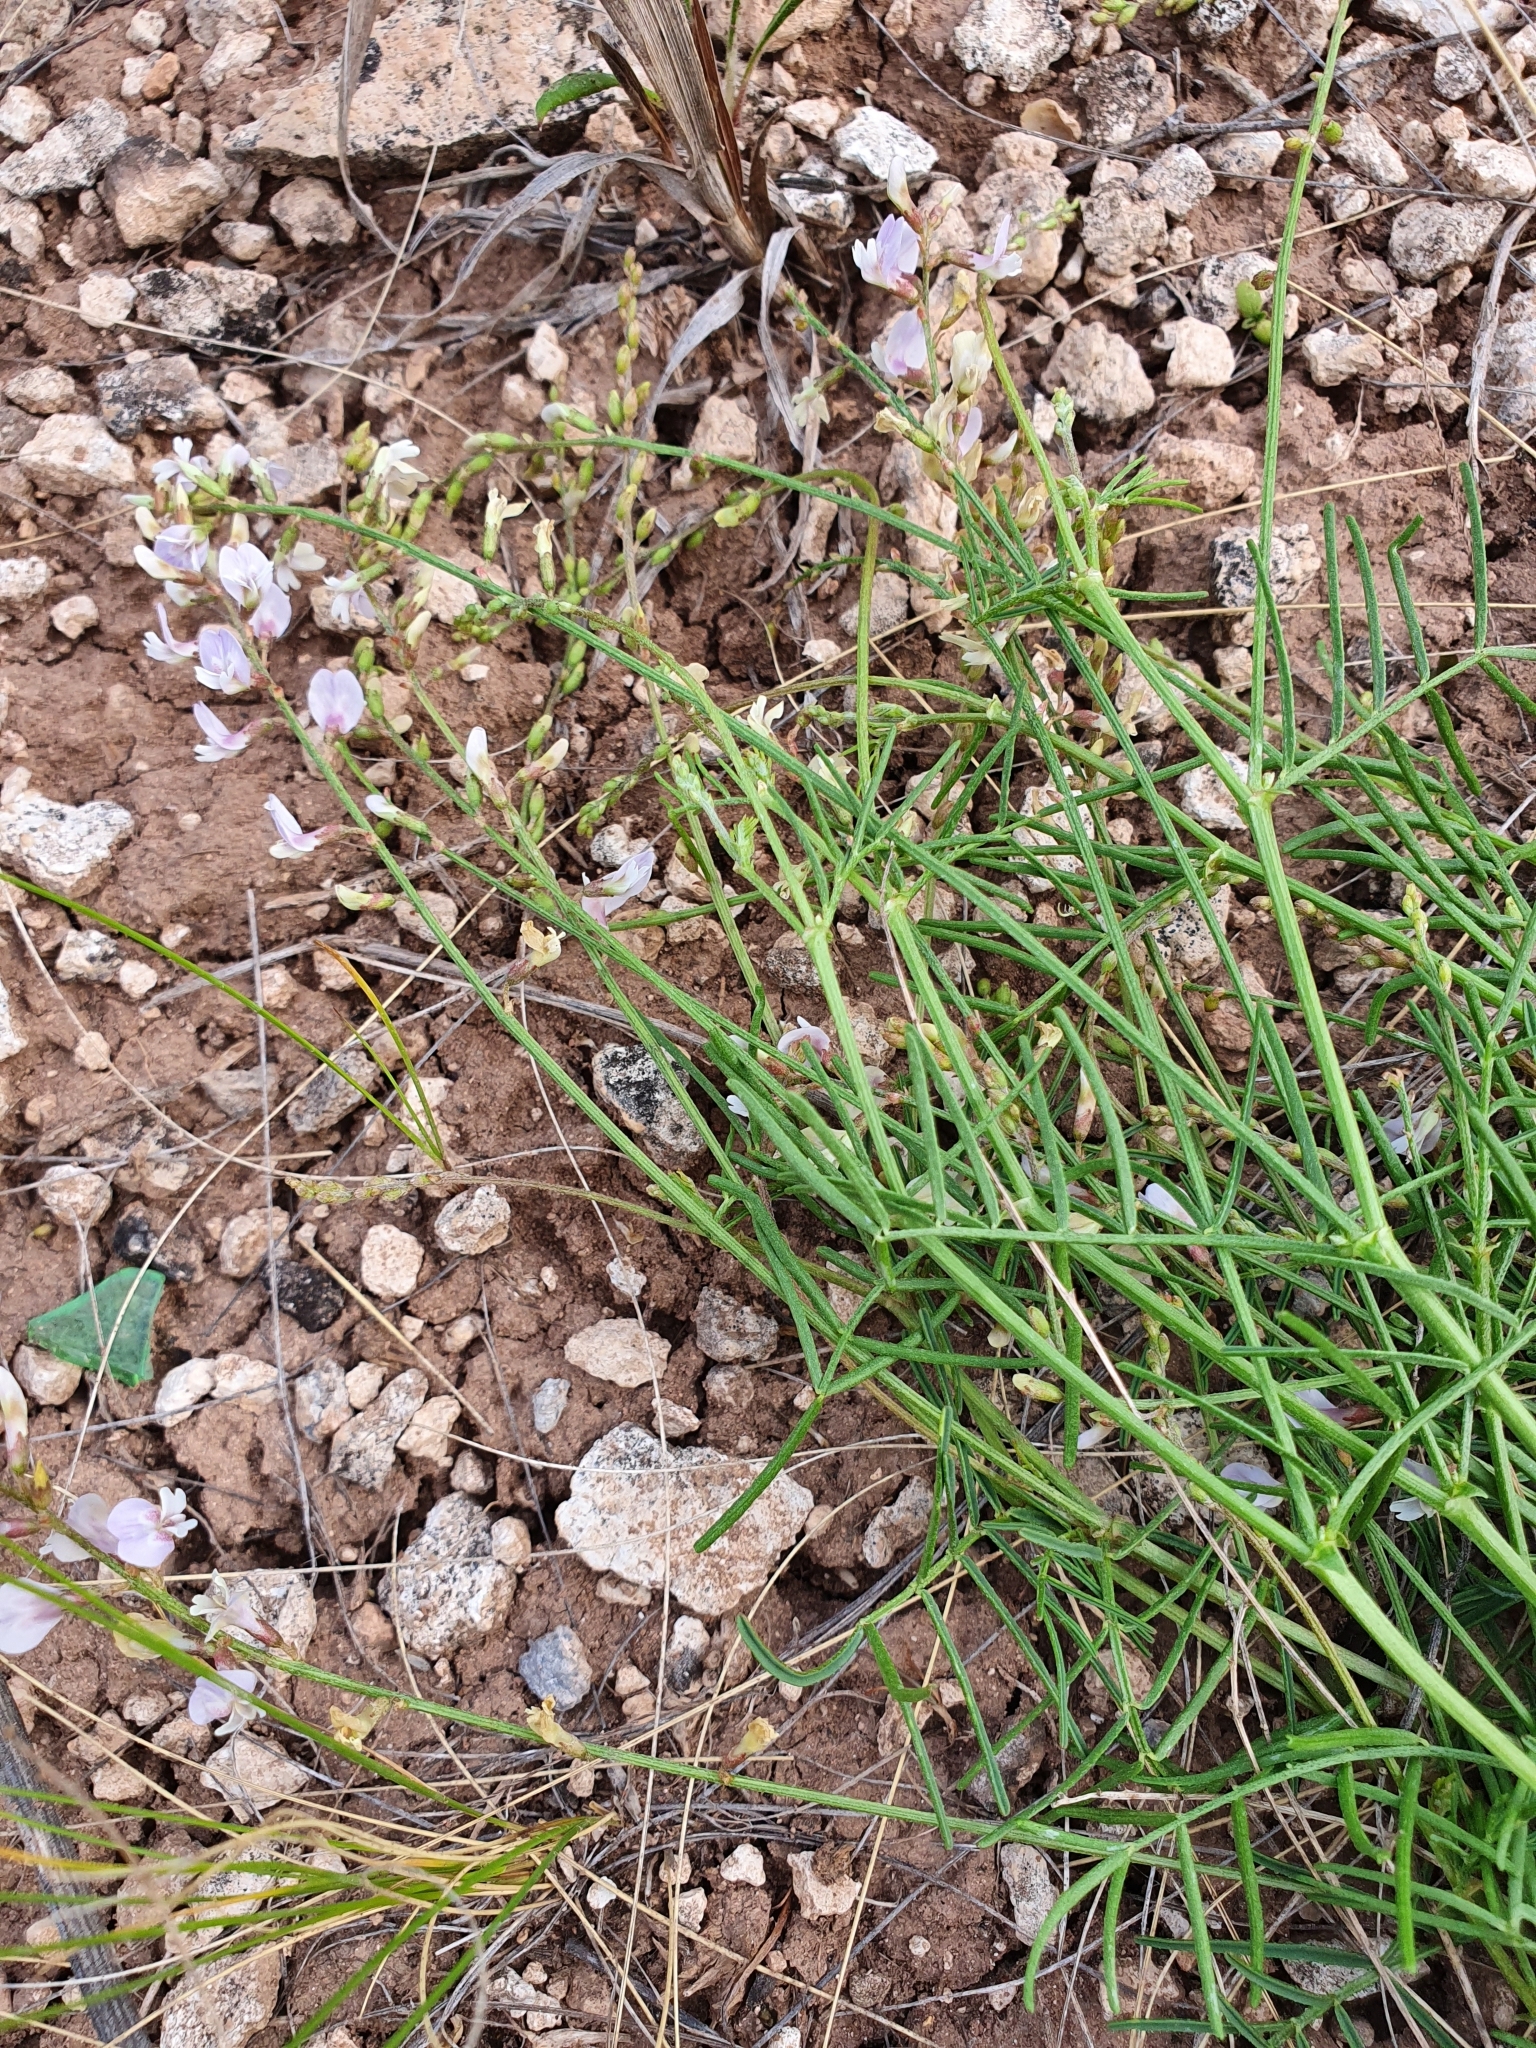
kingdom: Plantae
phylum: Tracheophyta
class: Magnoliopsida
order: Fabales
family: Fabaceae
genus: Astragalus
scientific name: Astragalus austriacus
